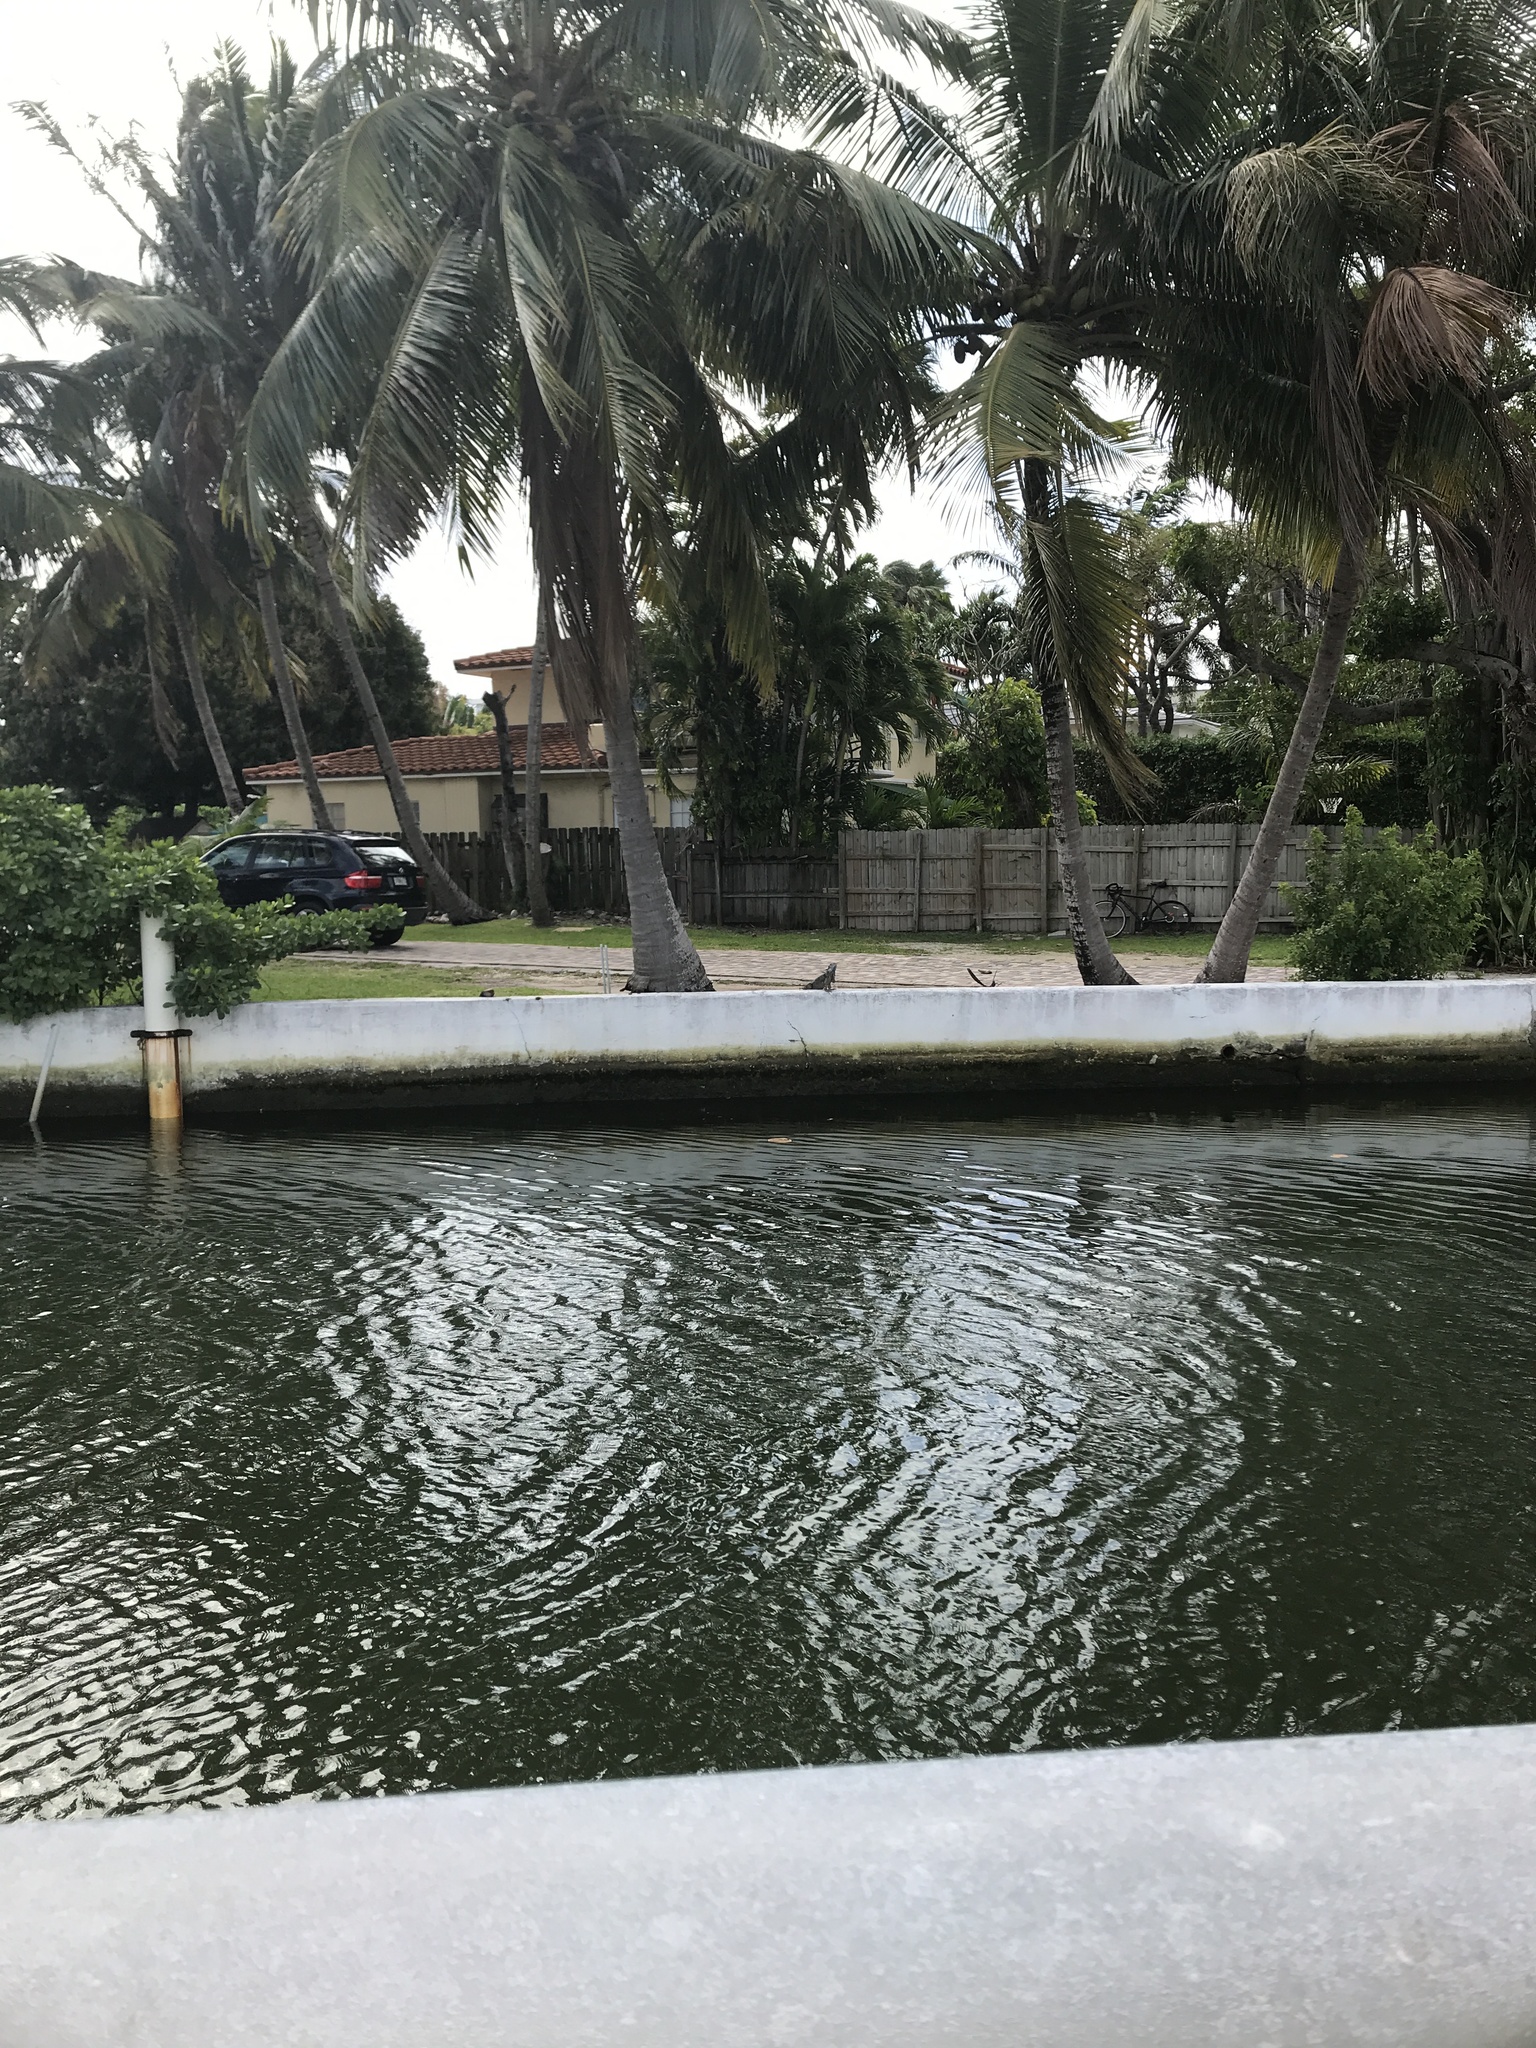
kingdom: Animalia
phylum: Chordata
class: Squamata
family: Iguanidae
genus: Iguana
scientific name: Iguana iguana
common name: Green iguana
